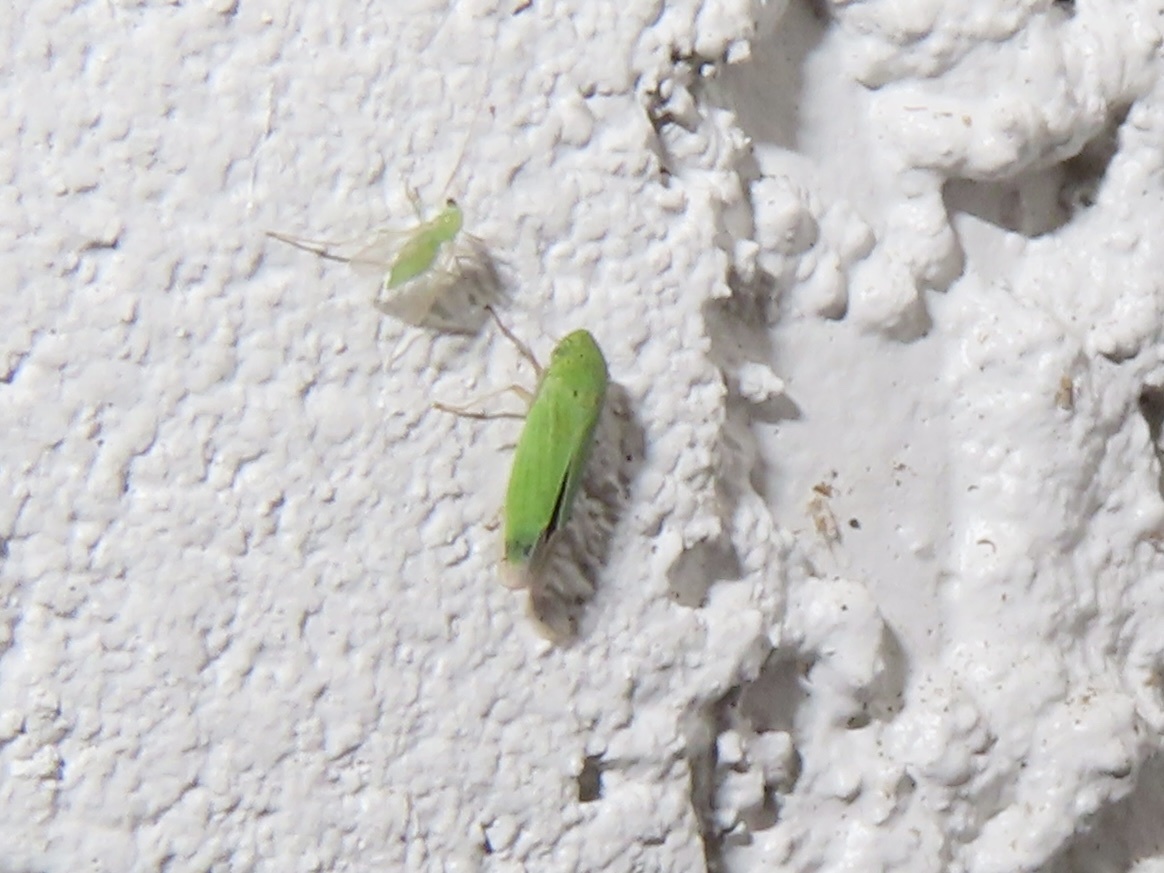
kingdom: Animalia
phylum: Arthropoda
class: Insecta
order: Hemiptera
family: Cicadellidae
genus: Hortensia
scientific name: Hortensia similis
